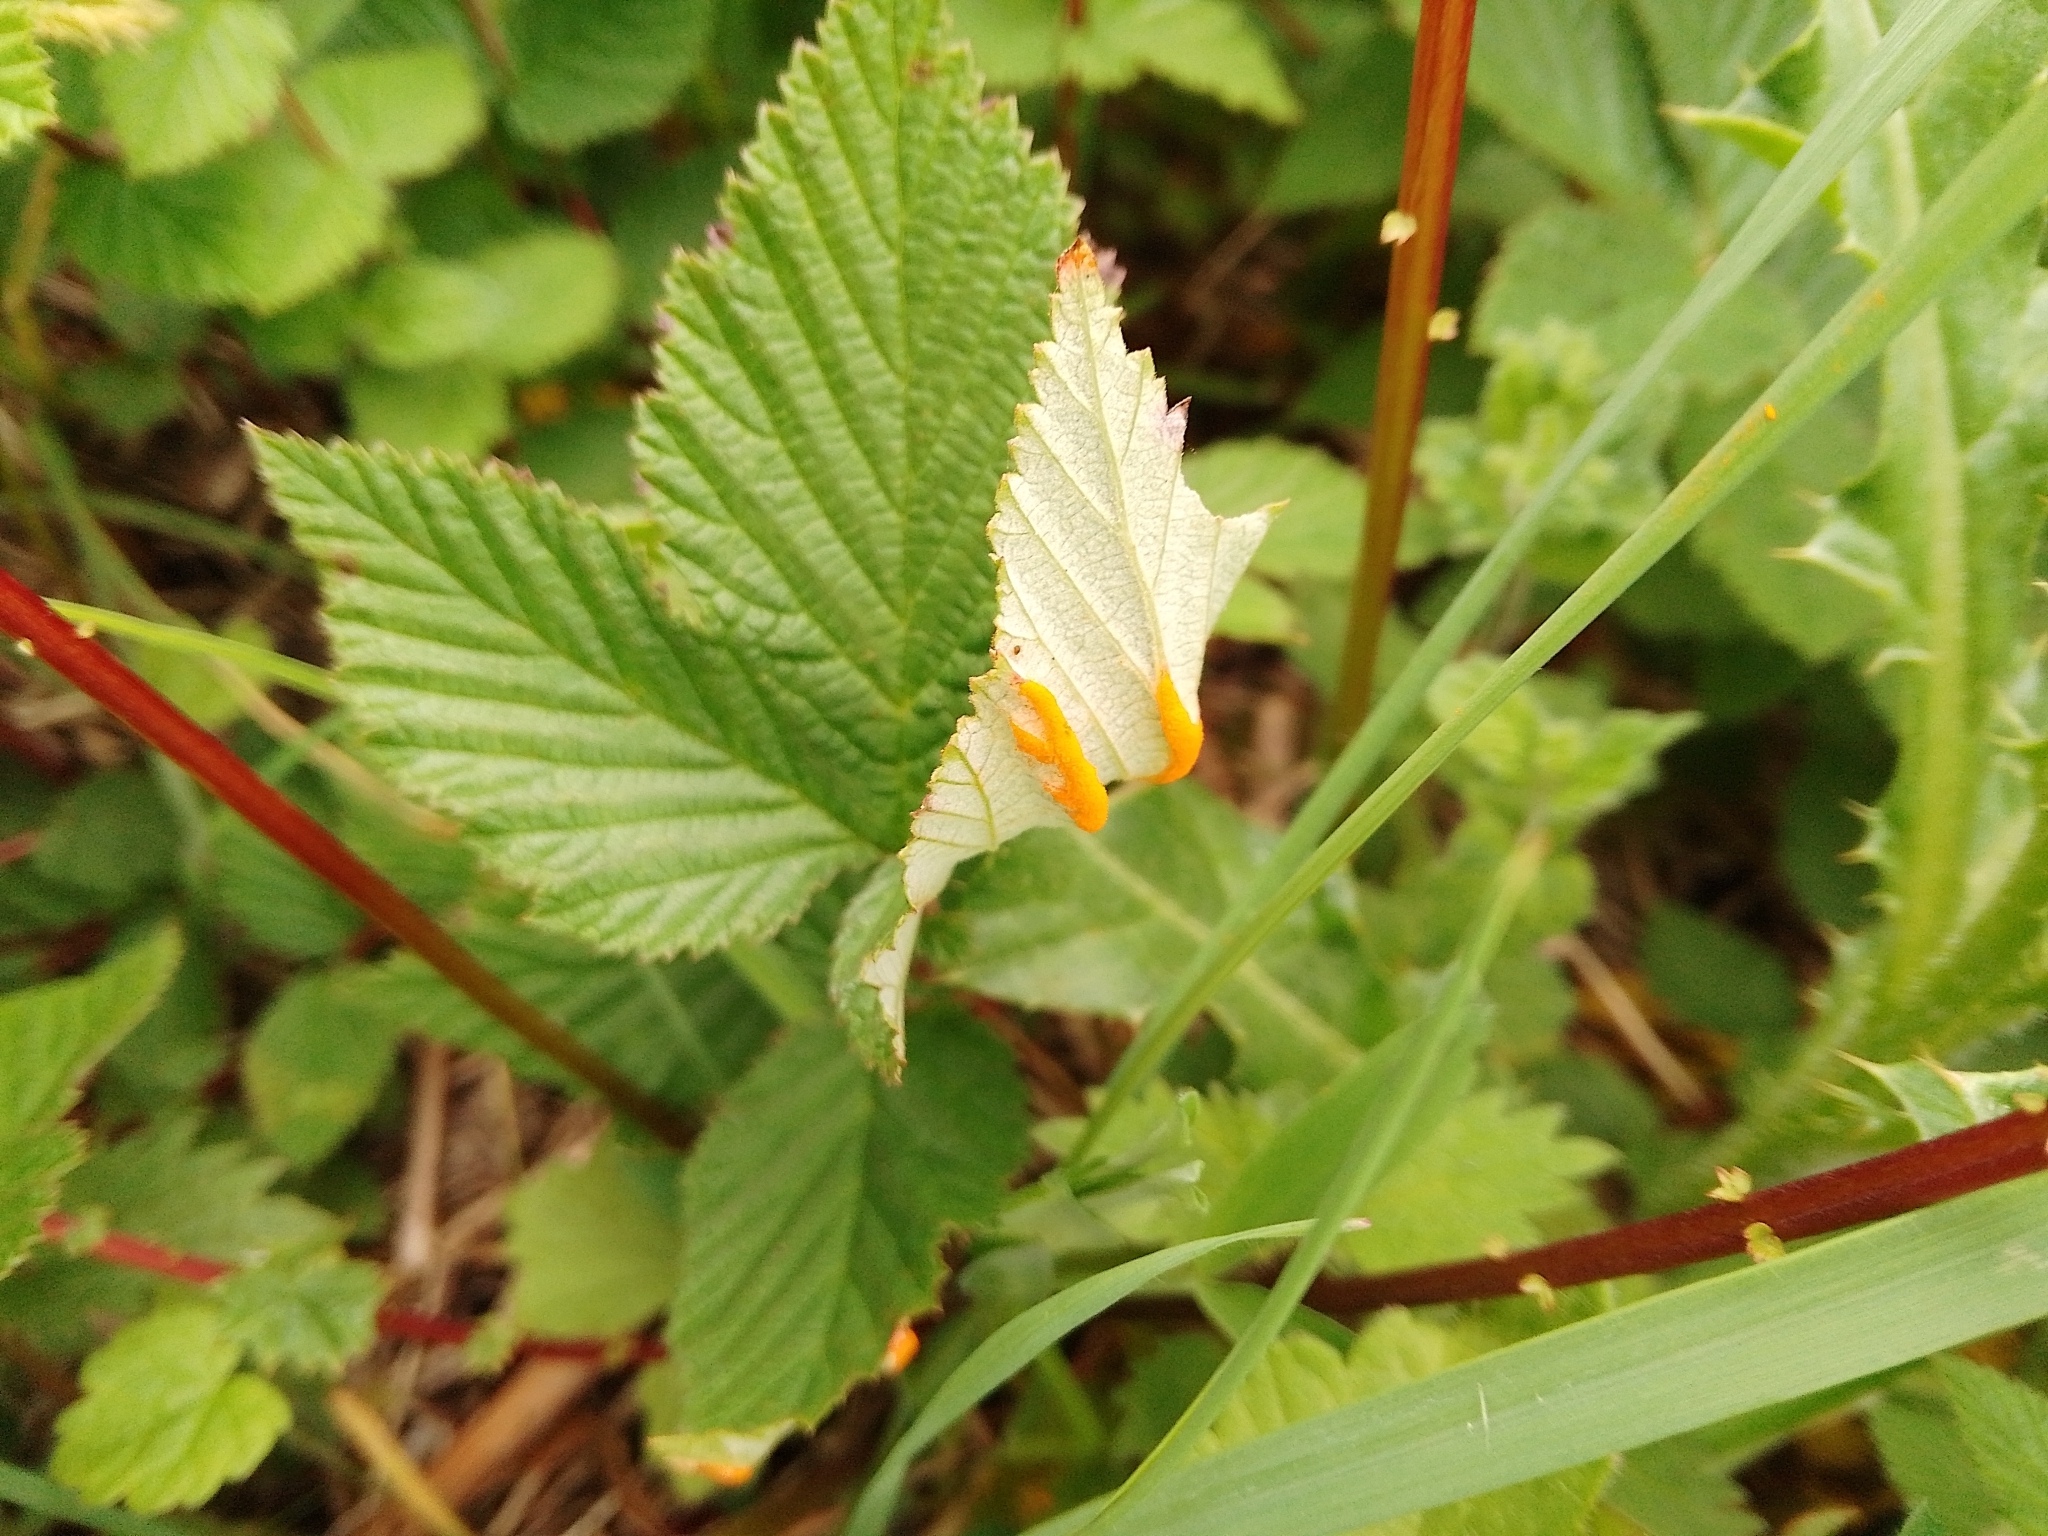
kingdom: Fungi
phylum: Basidiomycota
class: Pucciniomycetes
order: Pucciniales
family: Raveneliaceae
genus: Triphragmium
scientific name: Triphragmium ulmariae
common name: Meadowsweet rust
